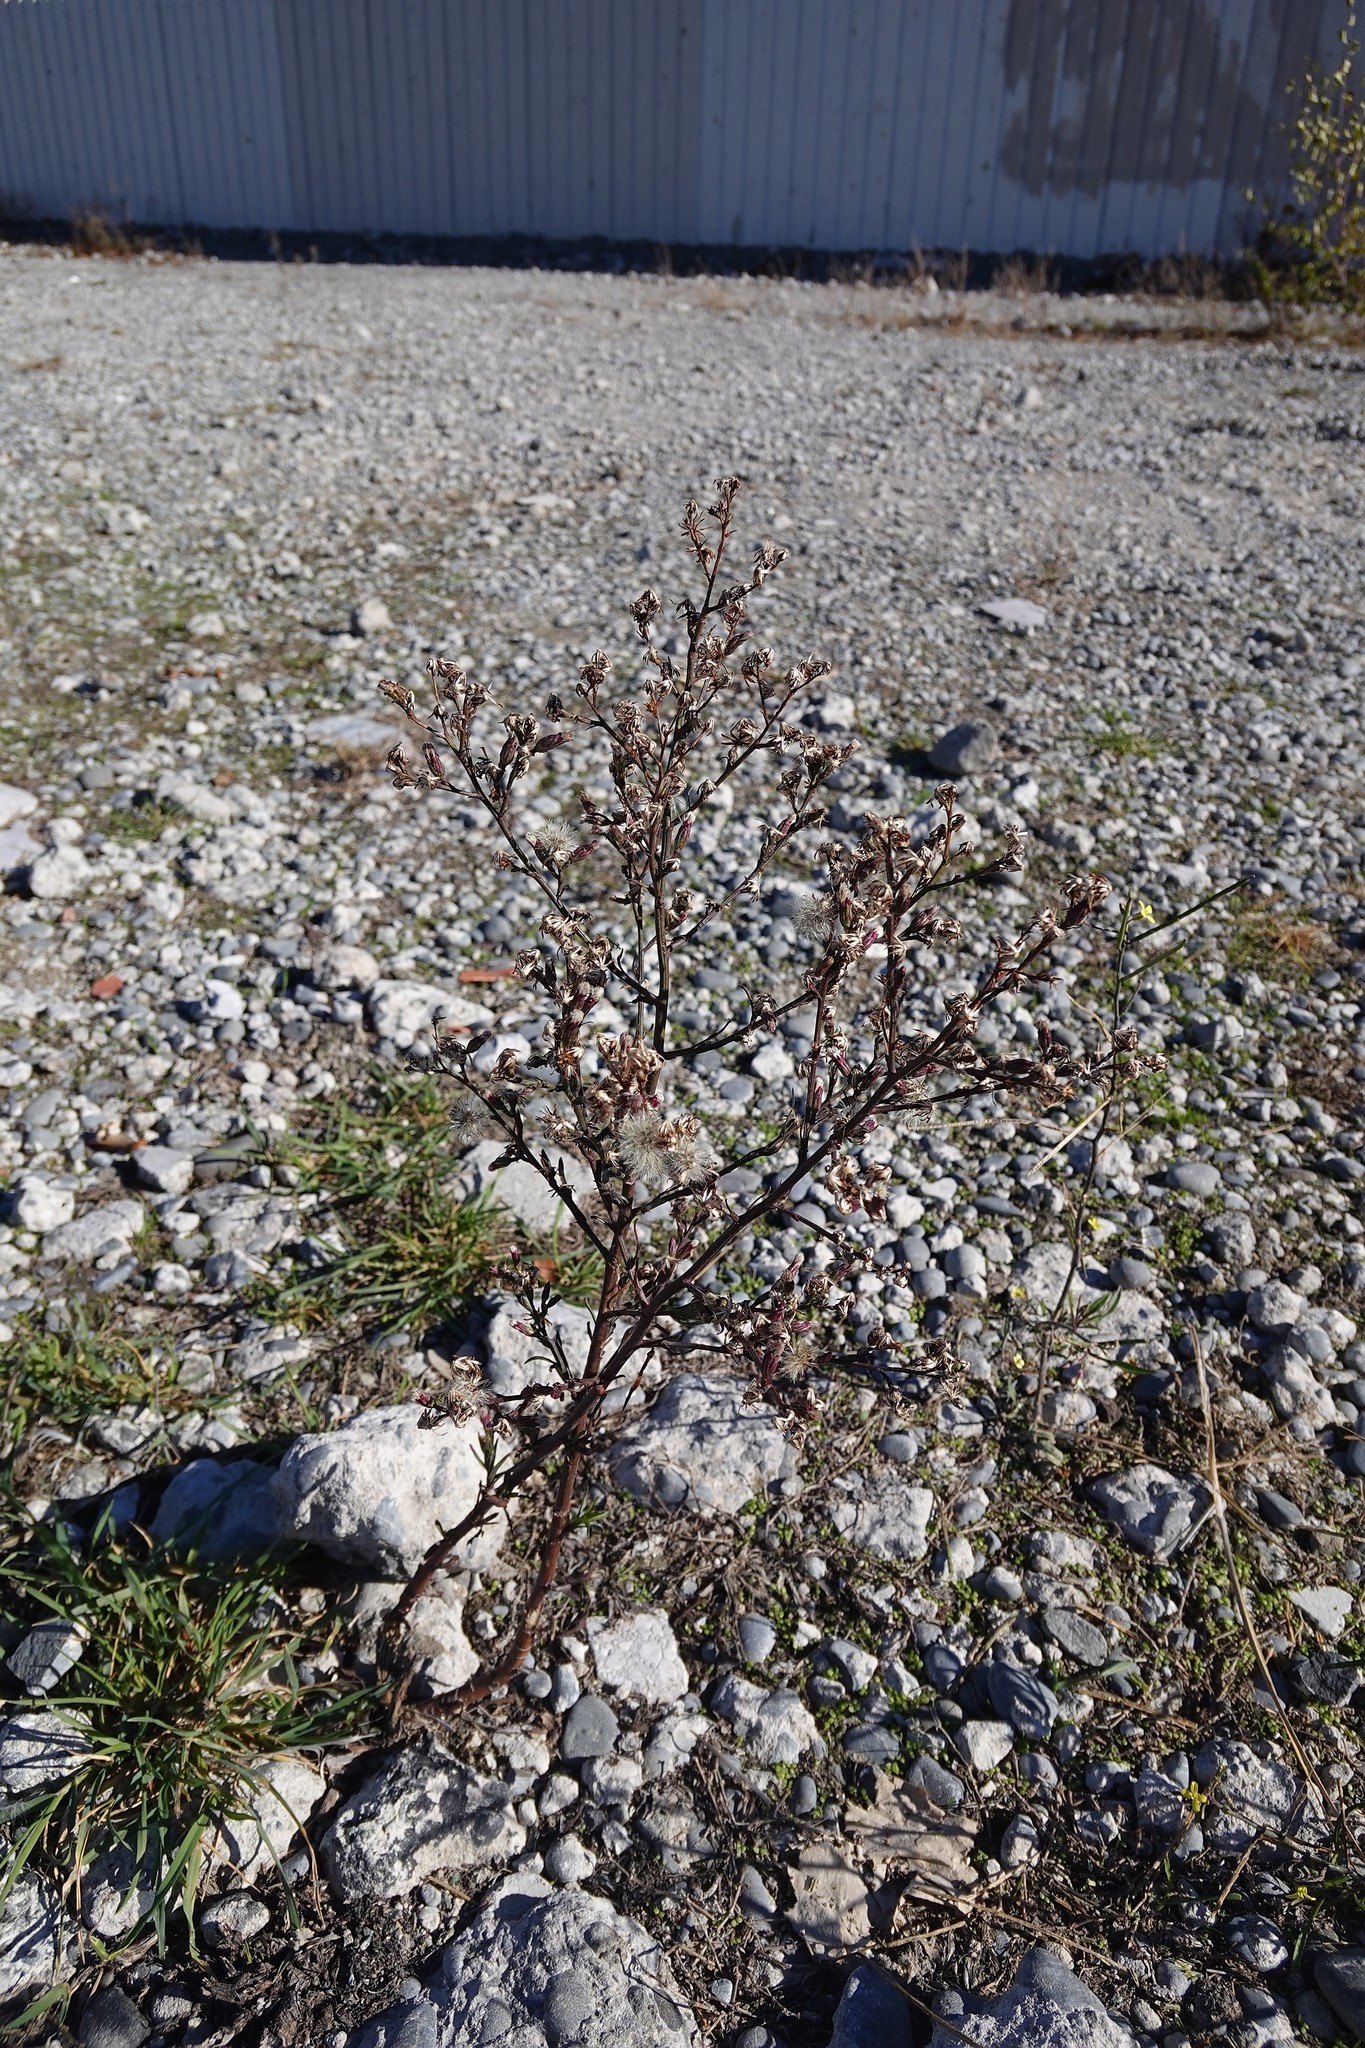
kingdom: Plantae
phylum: Tracheophyta
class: Magnoliopsida
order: Asterales
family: Asteraceae
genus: Symphyotrichum
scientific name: Symphyotrichum subulatum
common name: Annual saltmarsh aster
